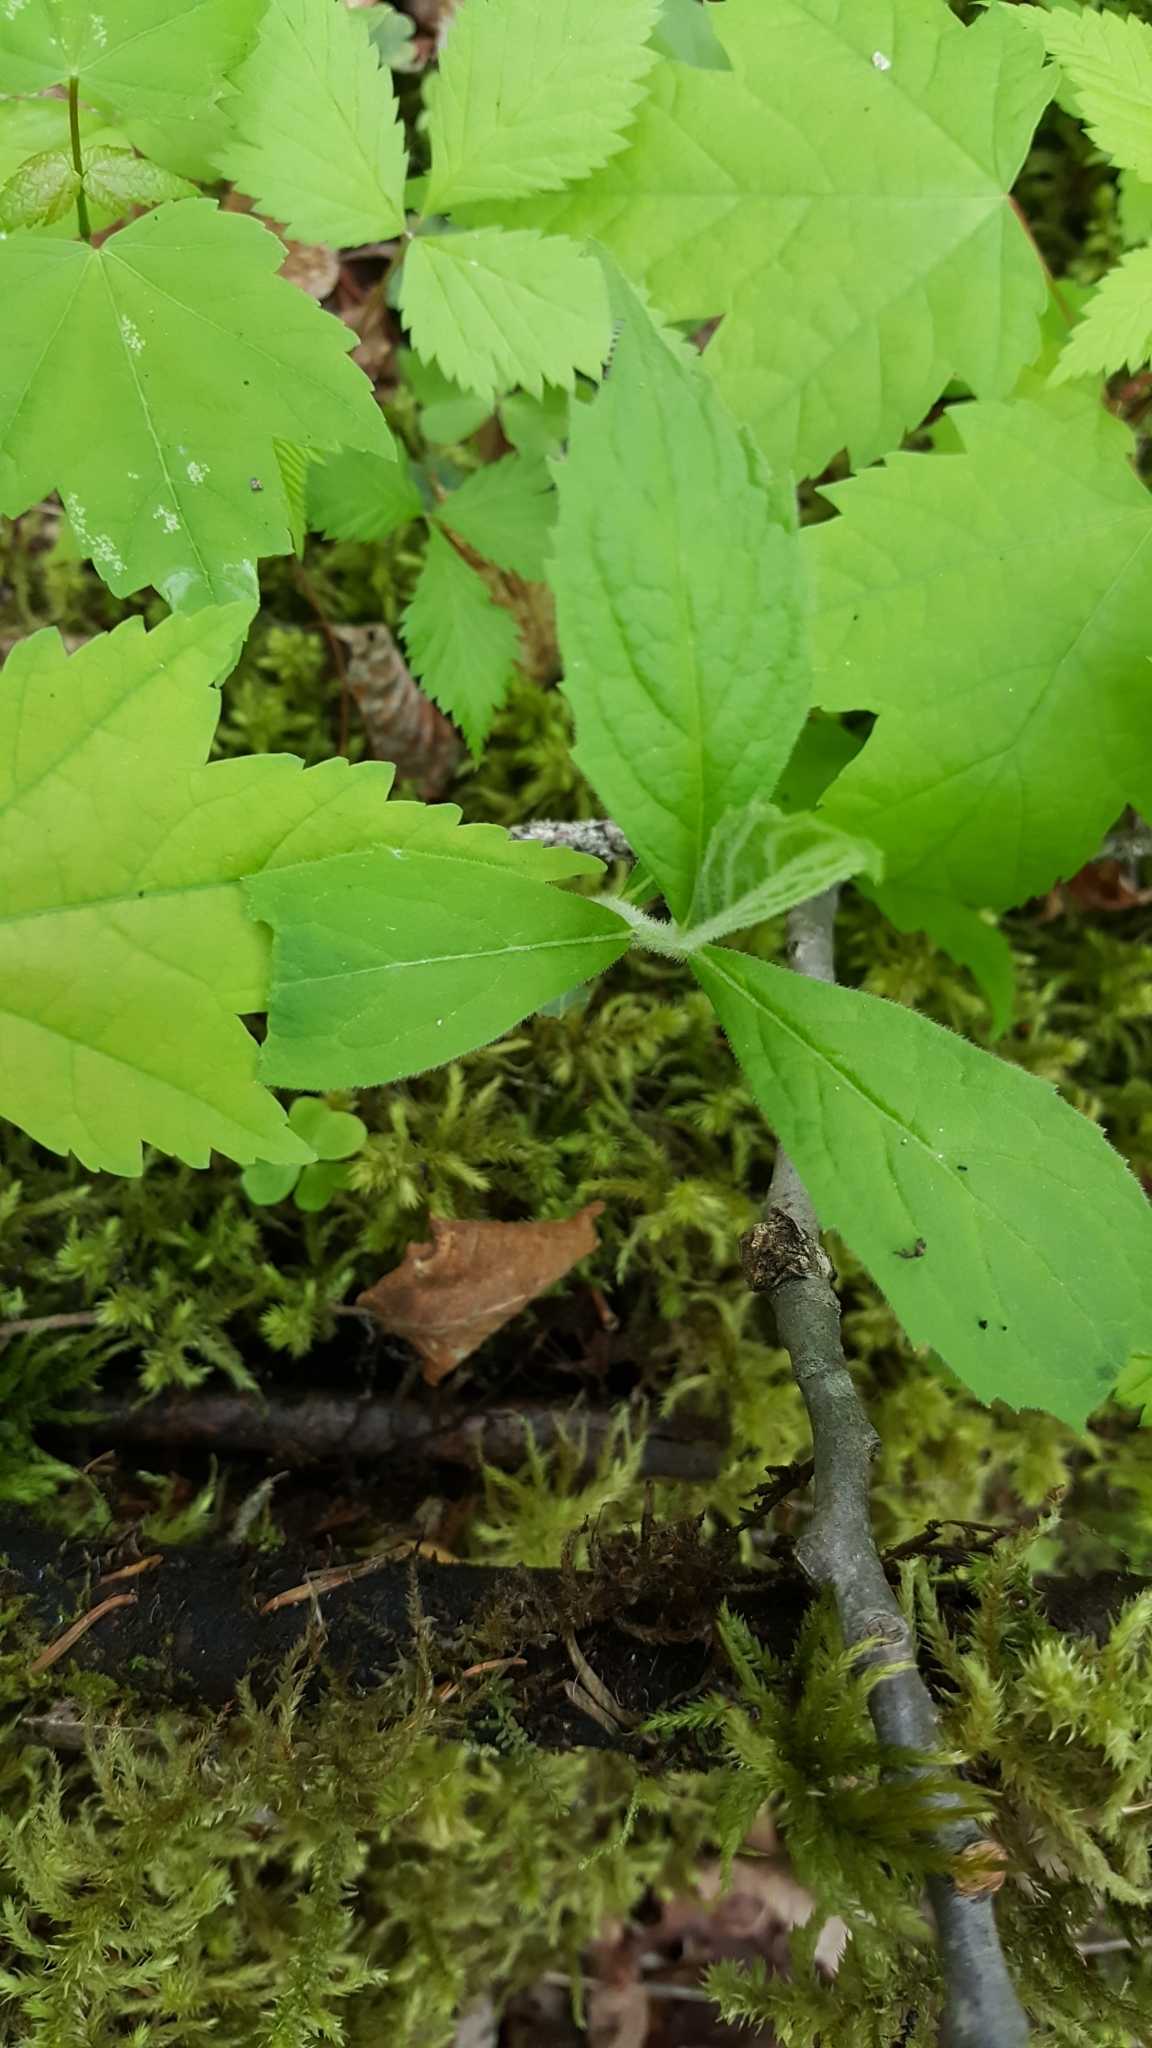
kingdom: Plantae
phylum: Tracheophyta
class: Magnoliopsida
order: Asterales
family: Asteraceae
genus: Oclemena
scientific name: Oclemena acuminata
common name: Mountain aster
